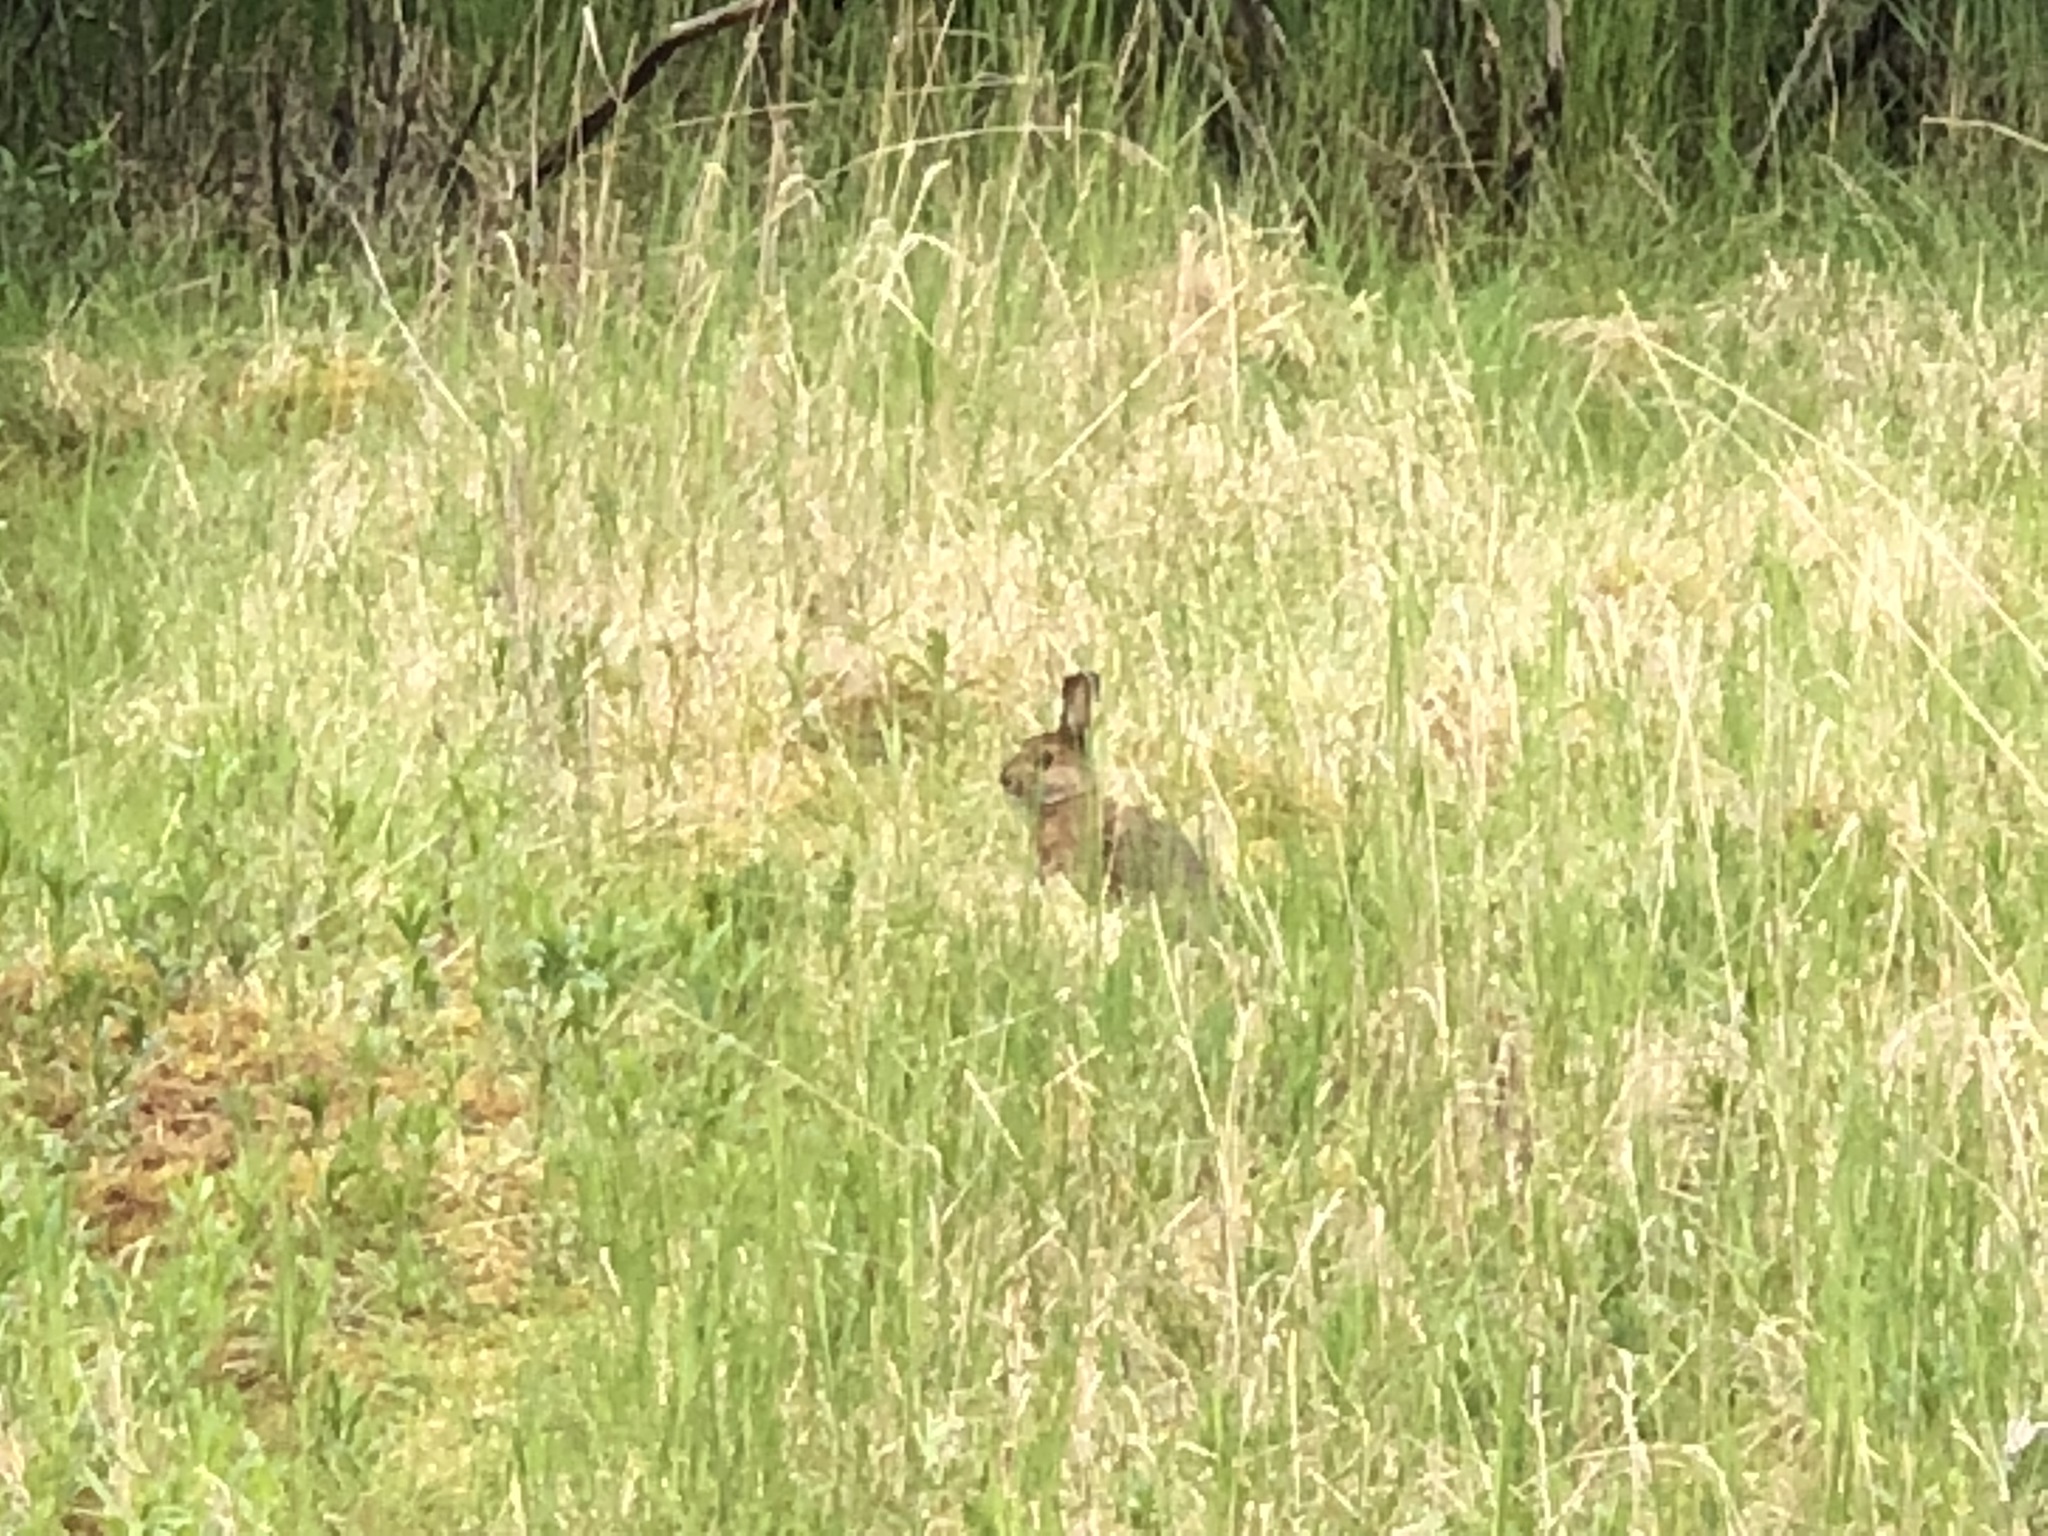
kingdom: Animalia
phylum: Chordata
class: Mammalia
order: Lagomorpha
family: Leporidae
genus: Lepus
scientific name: Lepus americanus
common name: Snowshoe hare
